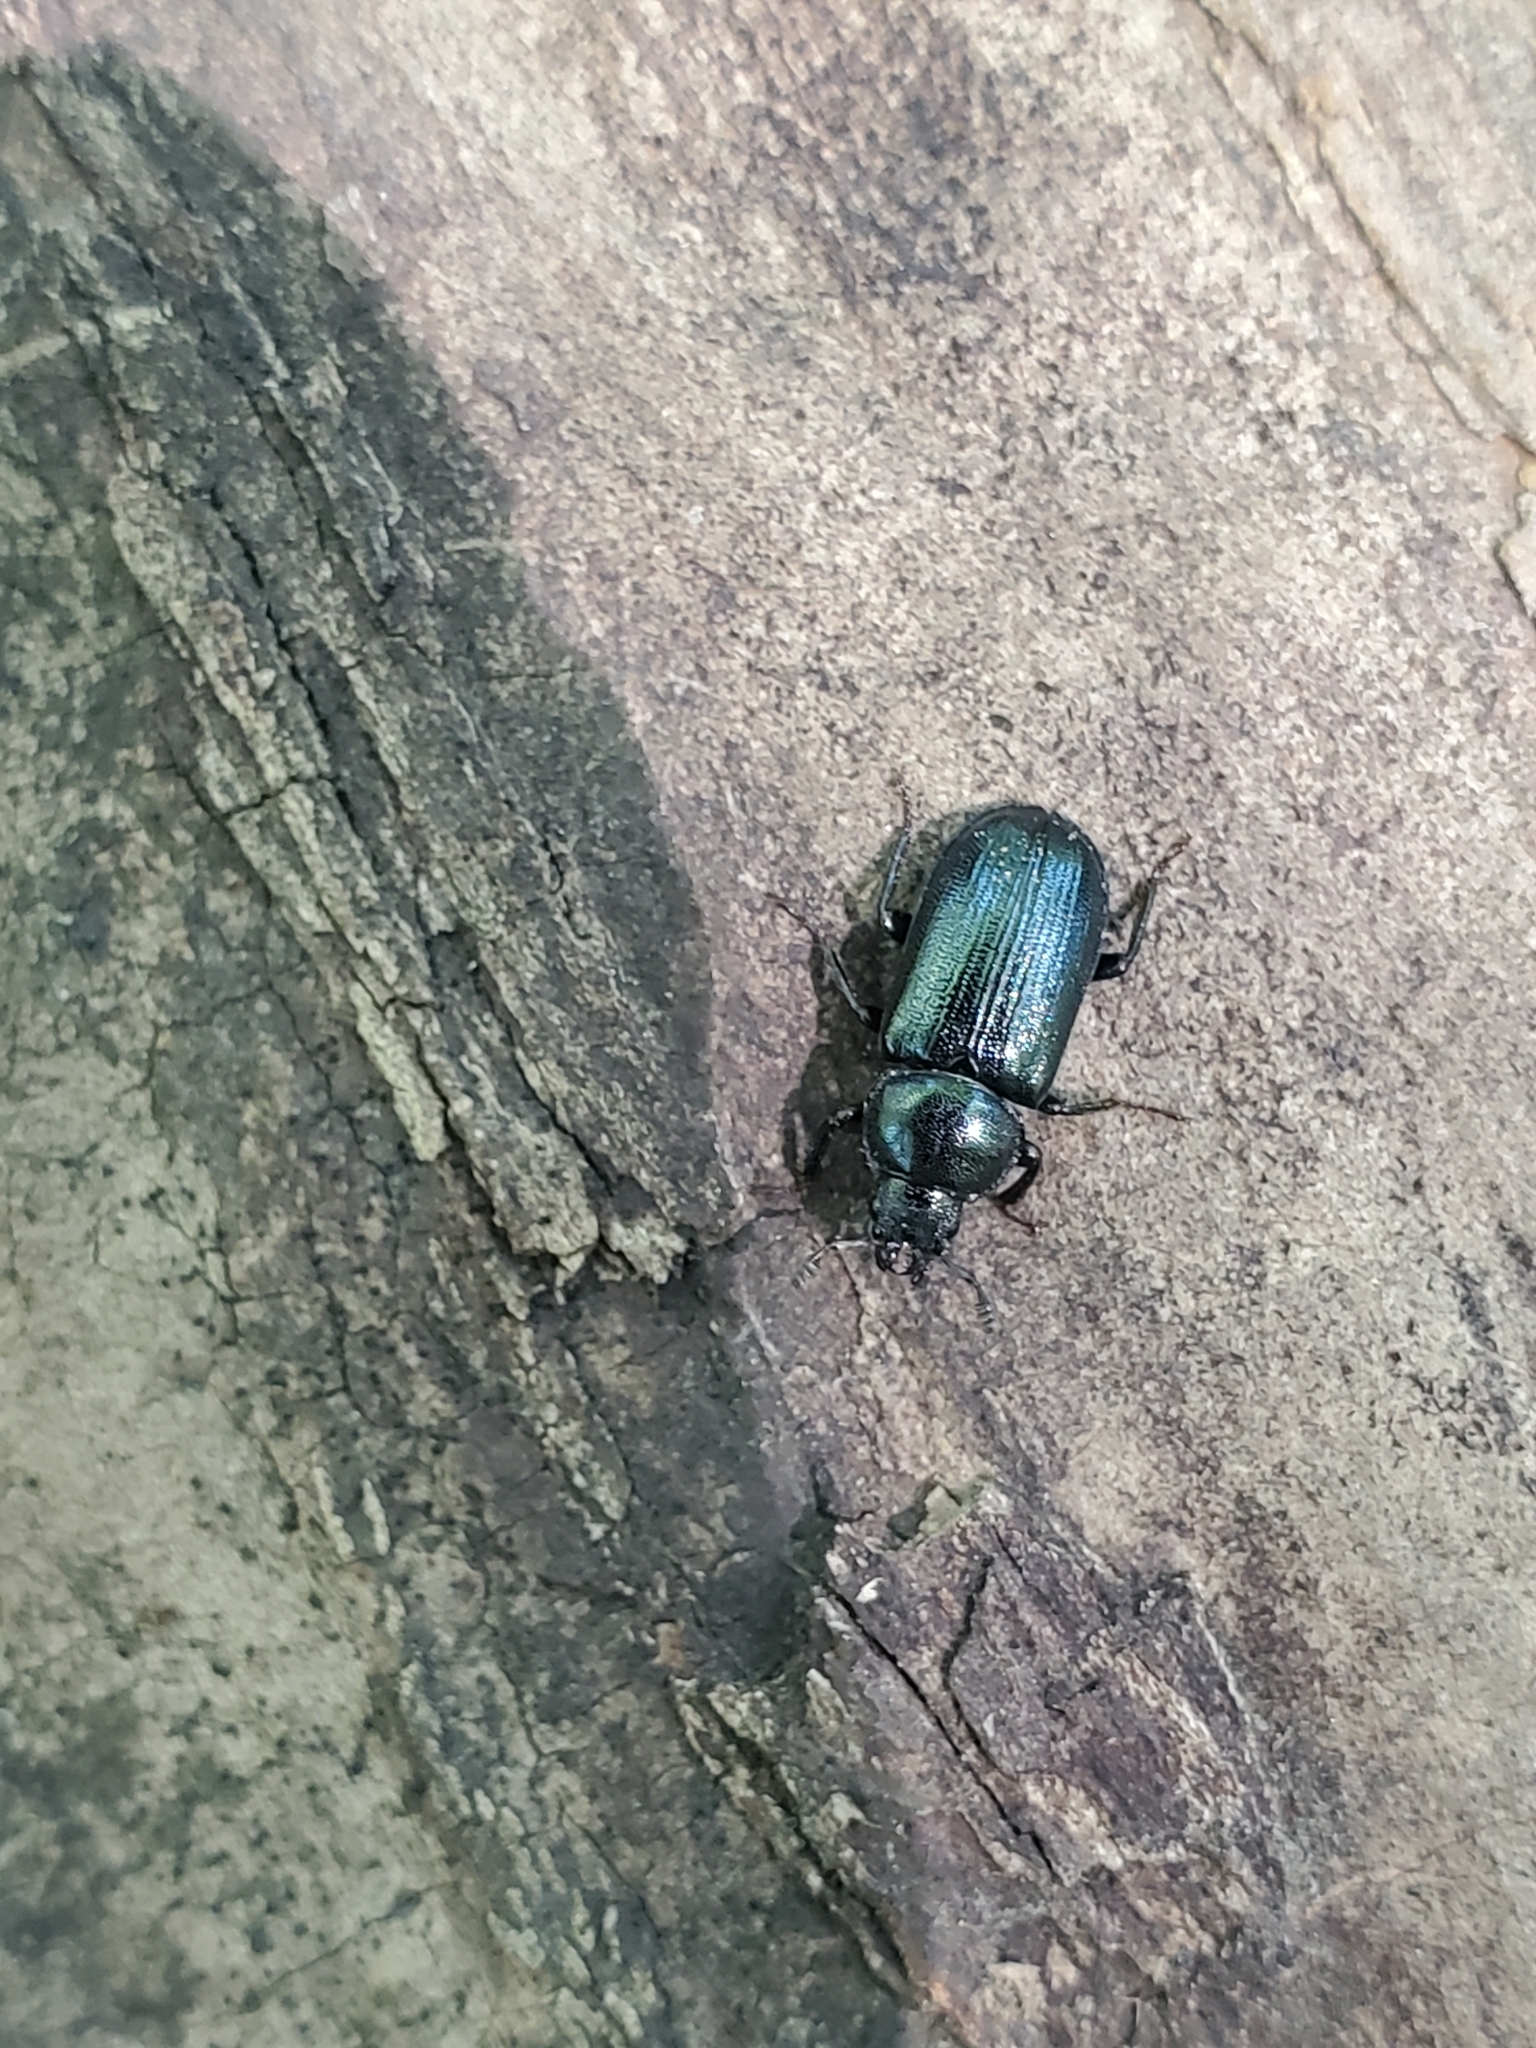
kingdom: Animalia
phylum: Arthropoda
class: Insecta
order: Coleoptera
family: Lucanidae
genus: Platycerus
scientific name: Platycerus quercus
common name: Oak stag beetle
